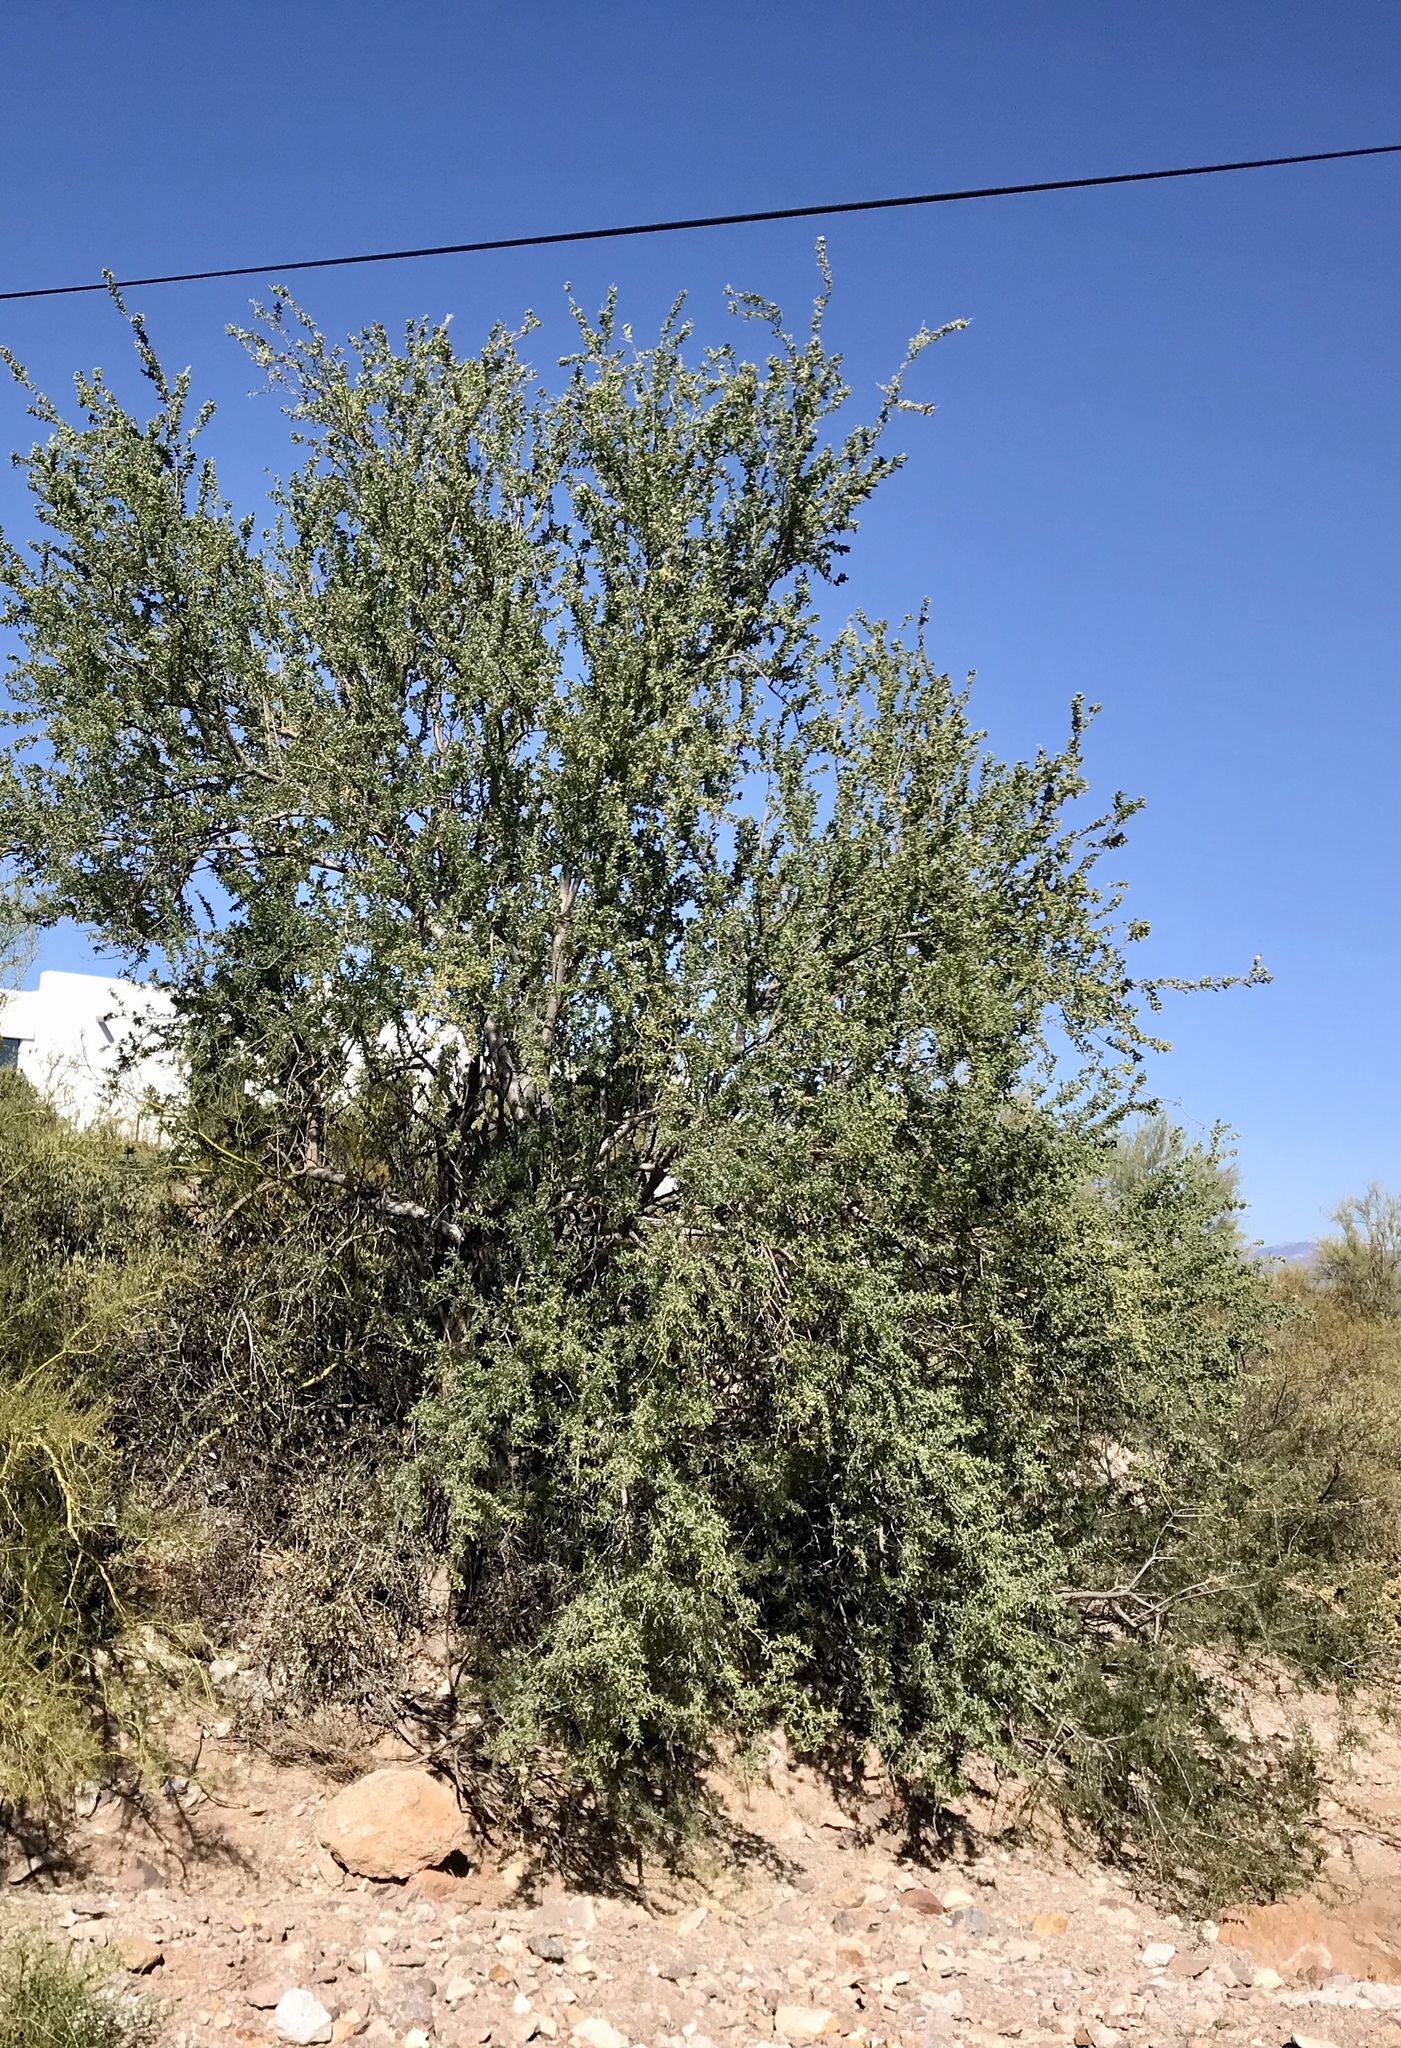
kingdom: Plantae
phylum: Tracheophyta
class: Magnoliopsida
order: Fabales
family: Fabaceae
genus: Olneya
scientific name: Olneya tesota
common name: Desert ironwood
